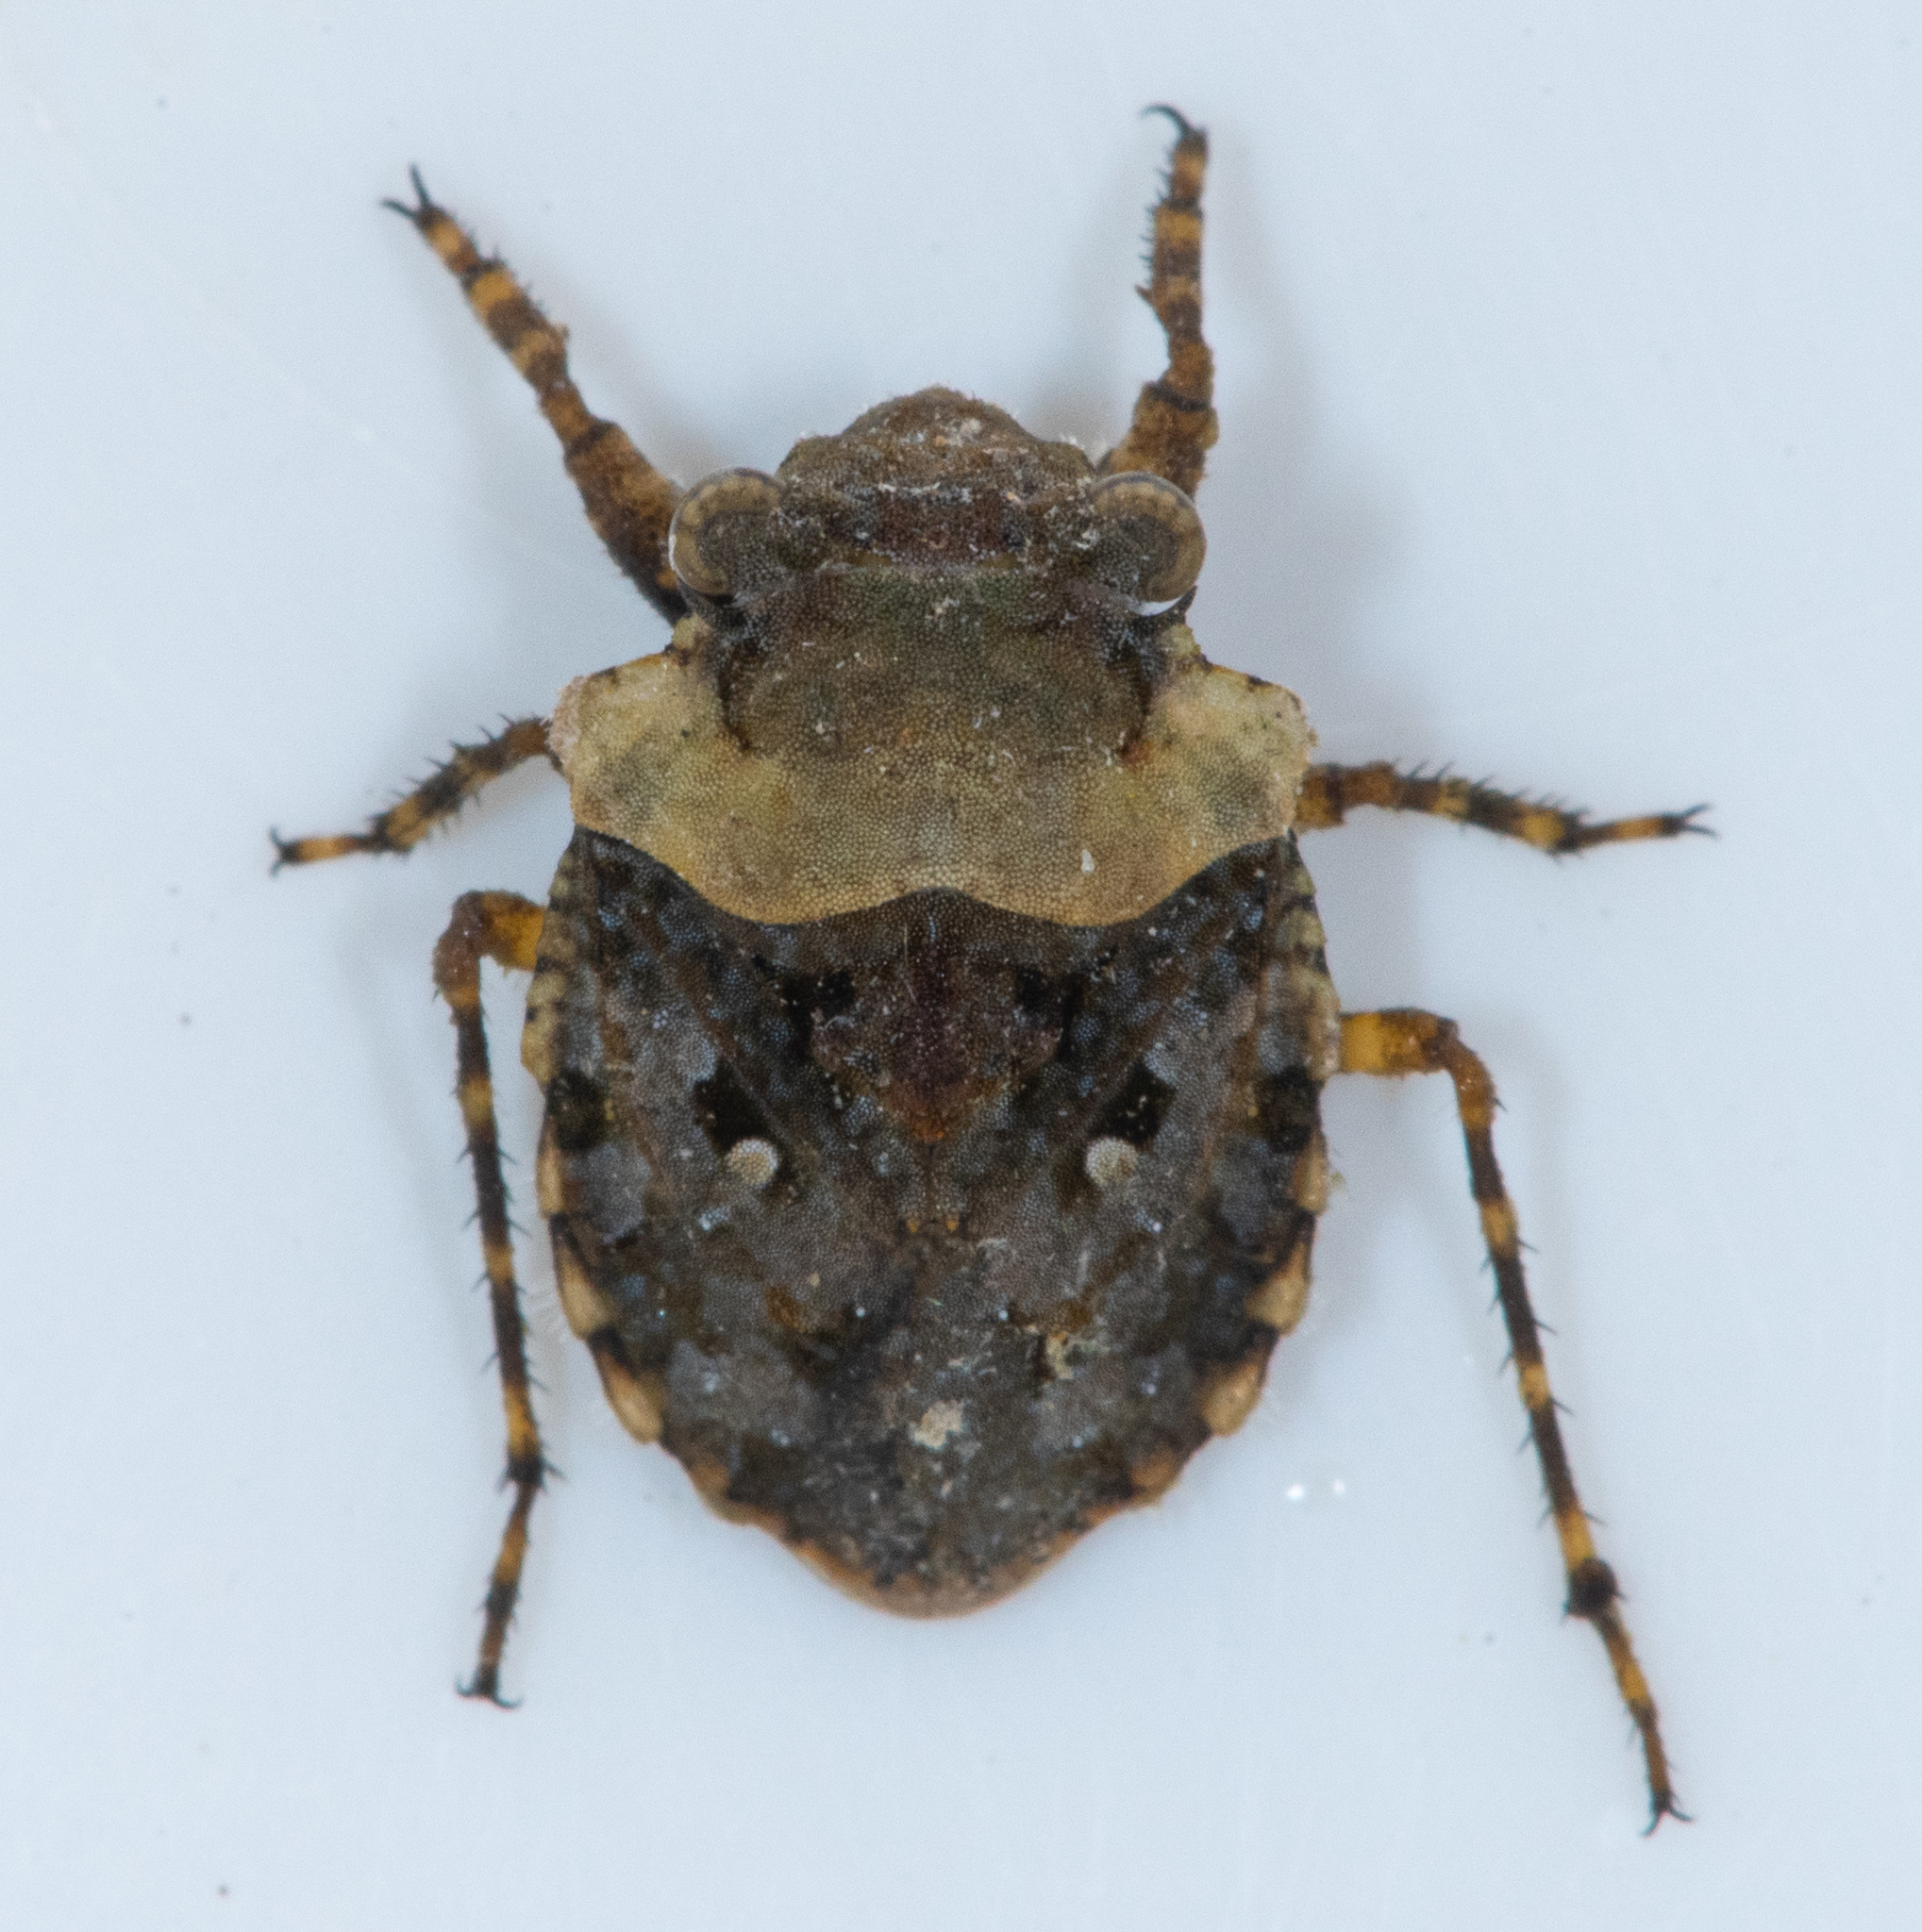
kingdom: Animalia
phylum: Arthropoda
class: Insecta
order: Hemiptera
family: Gelastocoridae
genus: Gelastocoris
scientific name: Gelastocoris oculatus
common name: Toad bug
